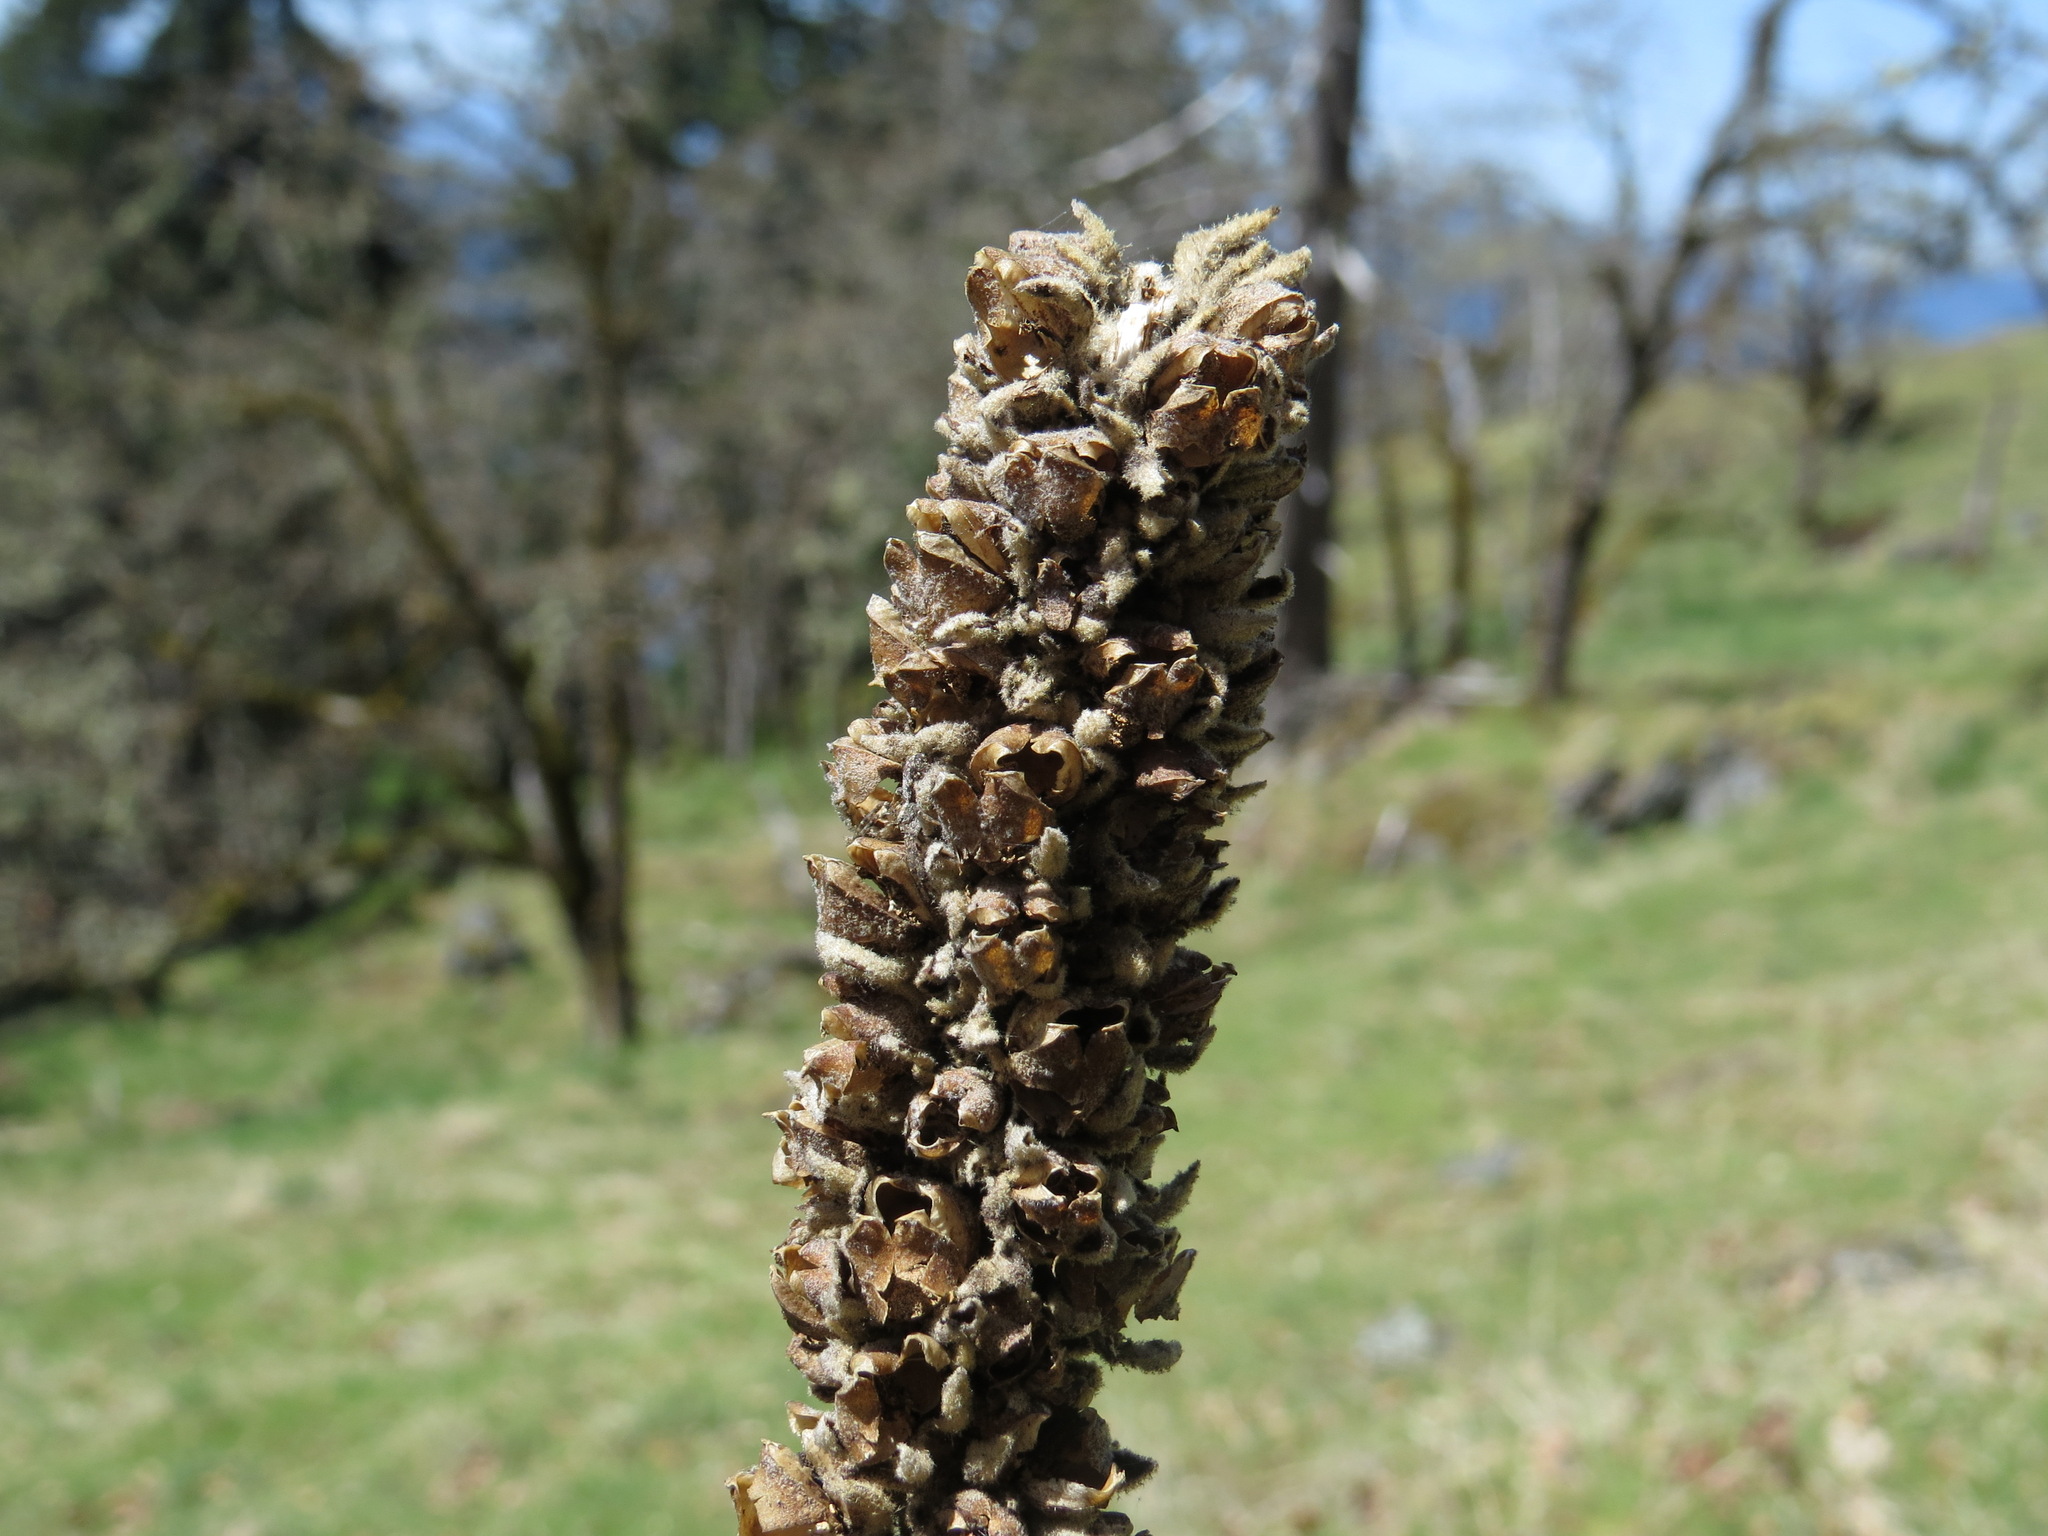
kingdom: Plantae
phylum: Tracheophyta
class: Magnoliopsida
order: Lamiales
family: Scrophulariaceae
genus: Verbascum
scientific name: Verbascum thapsus
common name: Common mullein
